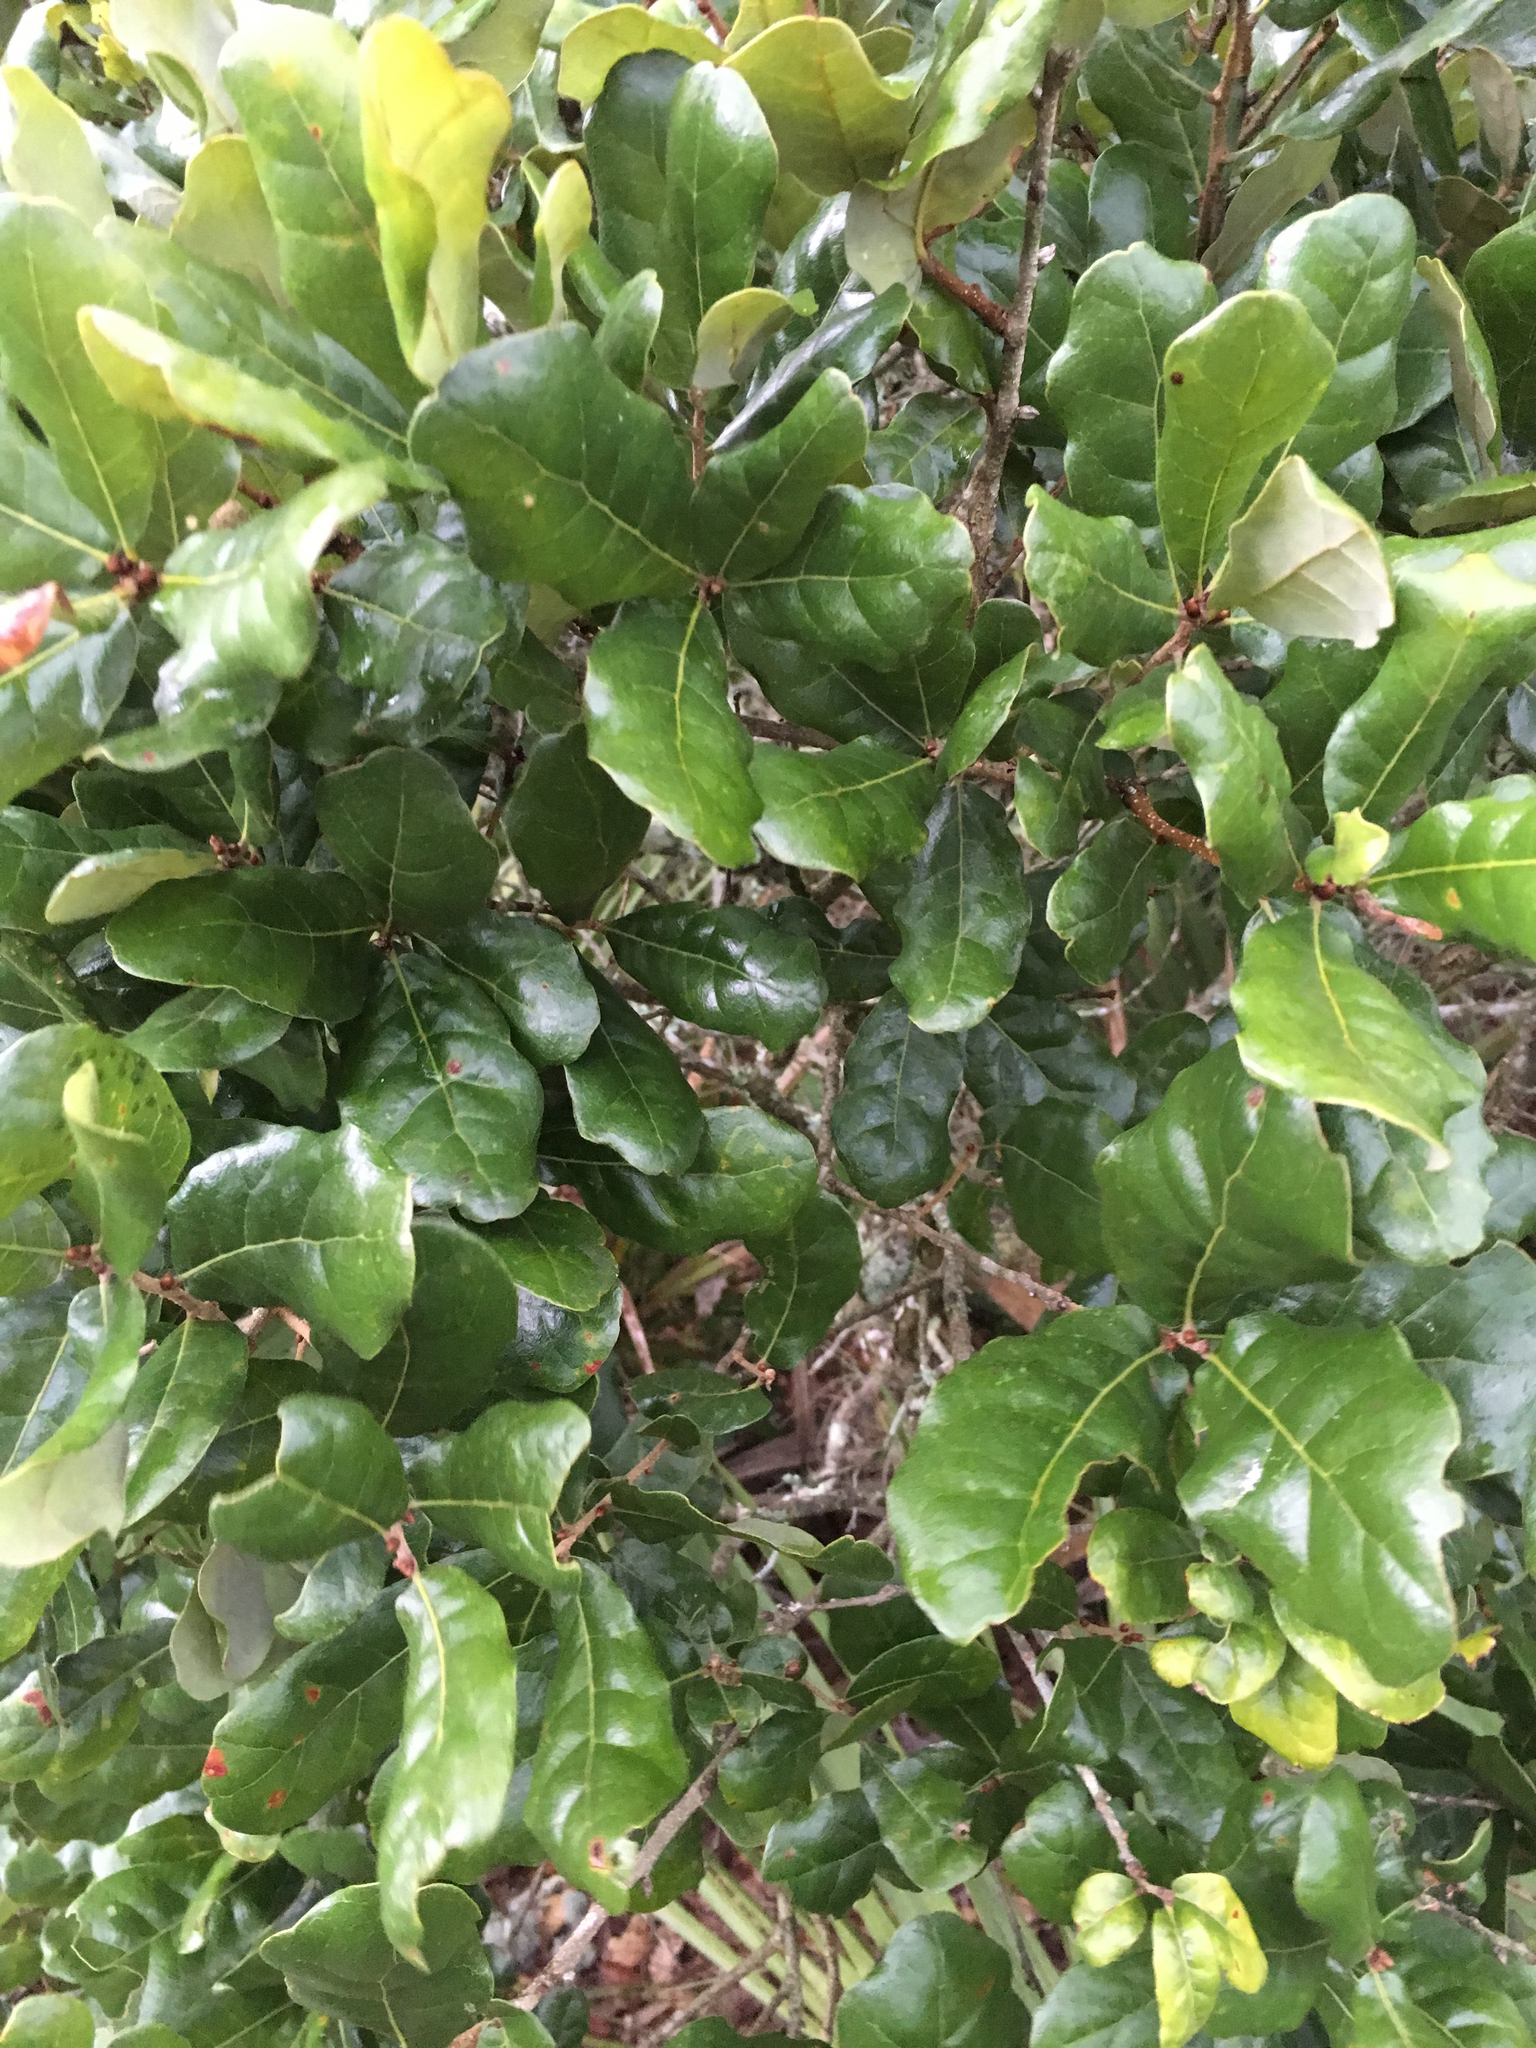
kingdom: Plantae
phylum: Tracheophyta
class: Magnoliopsida
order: Fagales
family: Fagaceae
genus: Quercus
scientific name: Quercus chapmanii
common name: Chapman oak
